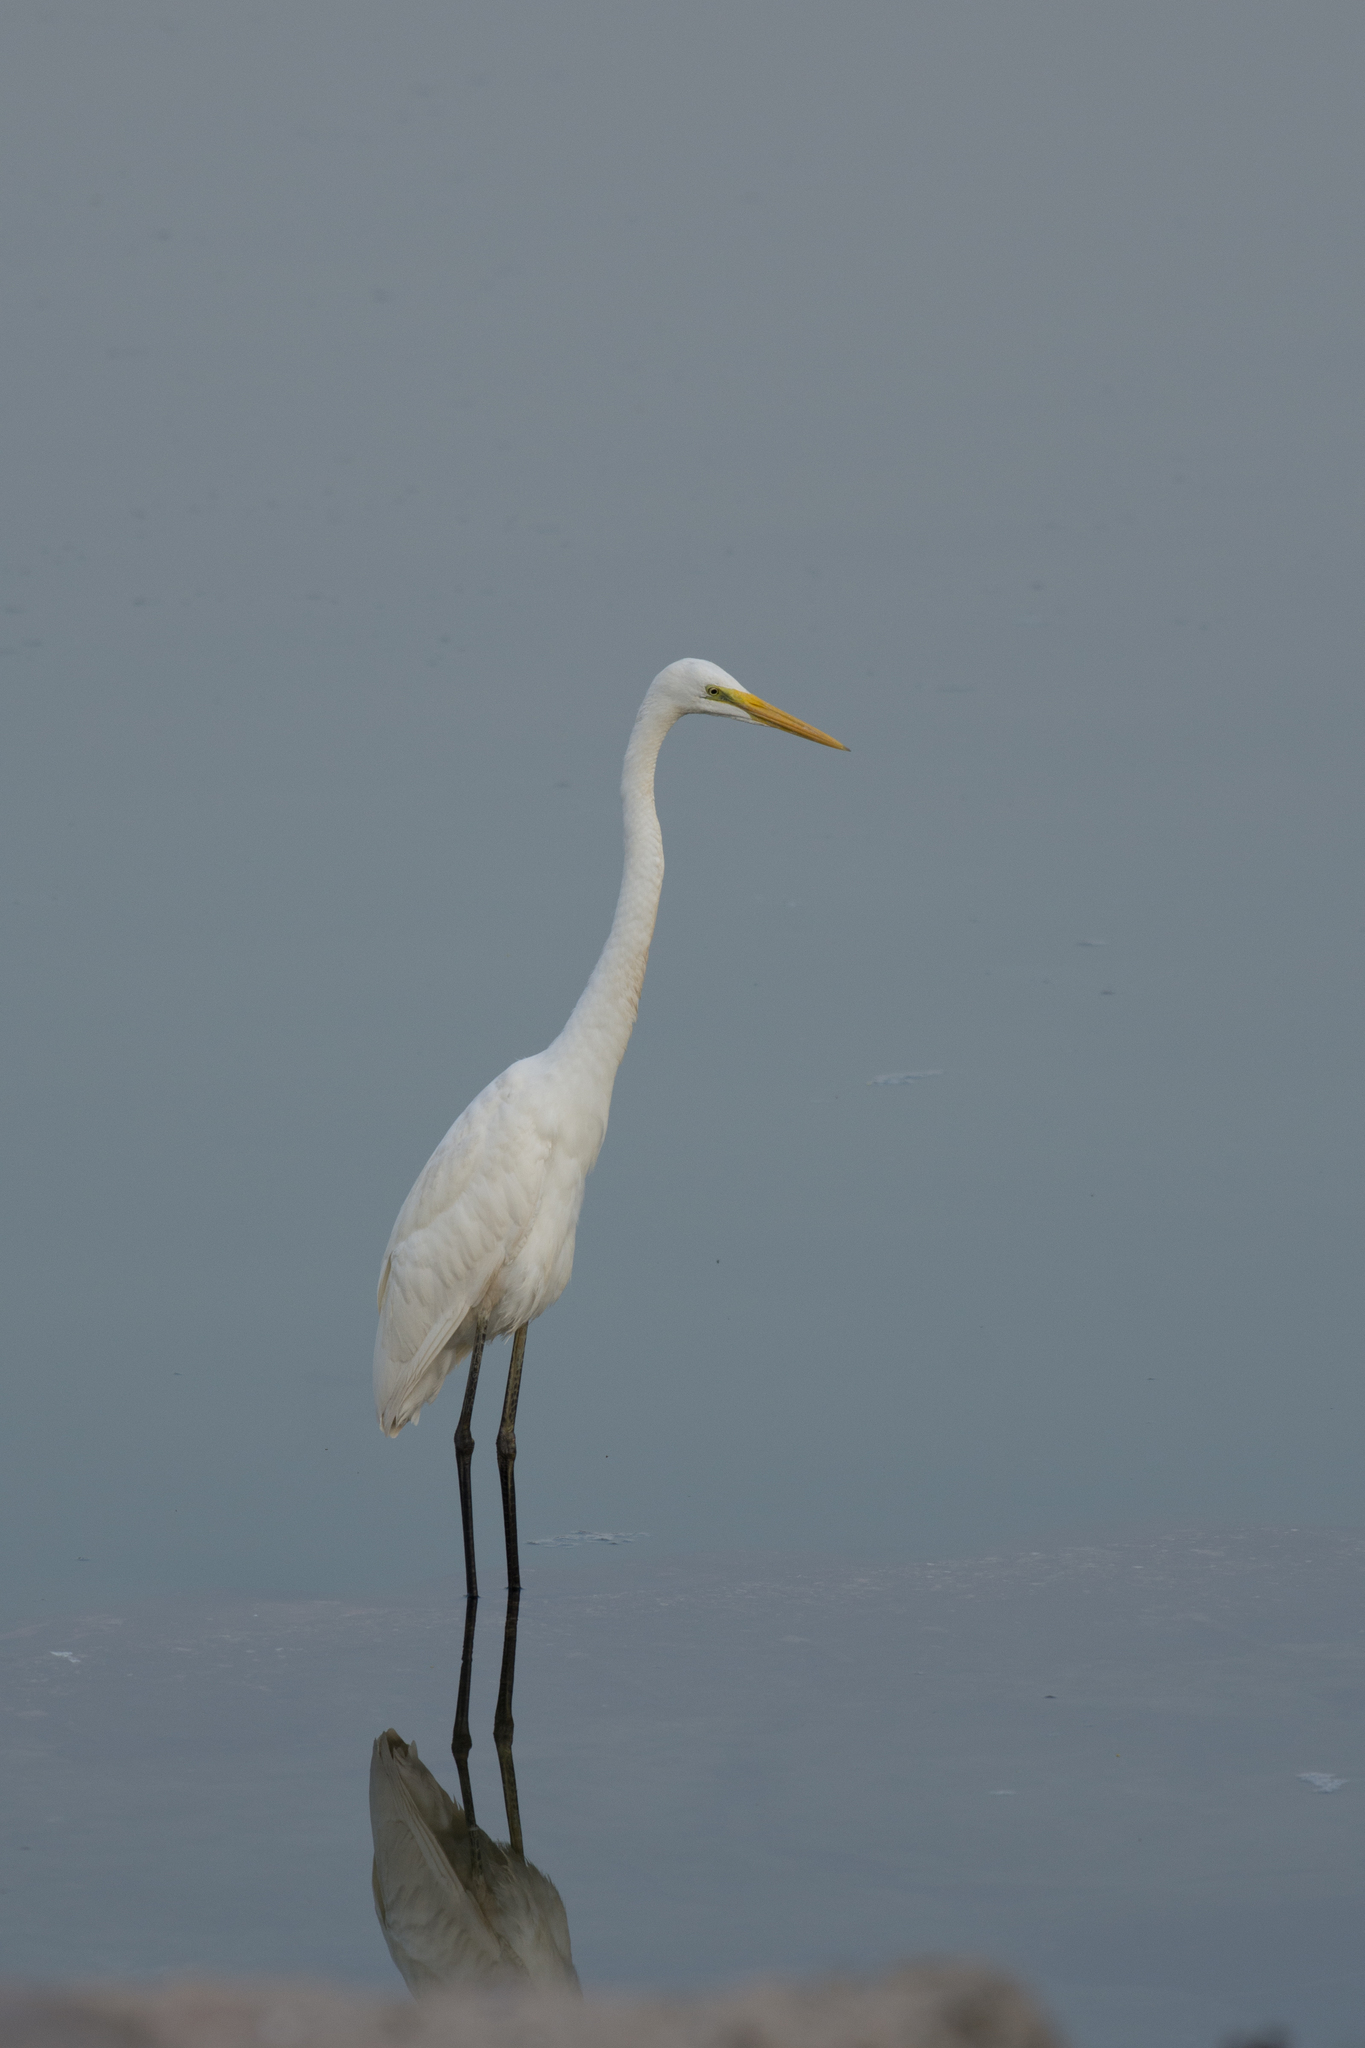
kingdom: Animalia
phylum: Chordata
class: Aves
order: Pelecaniformes
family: Ardeidae
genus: Ardea
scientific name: Ardea alba
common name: Great egret
